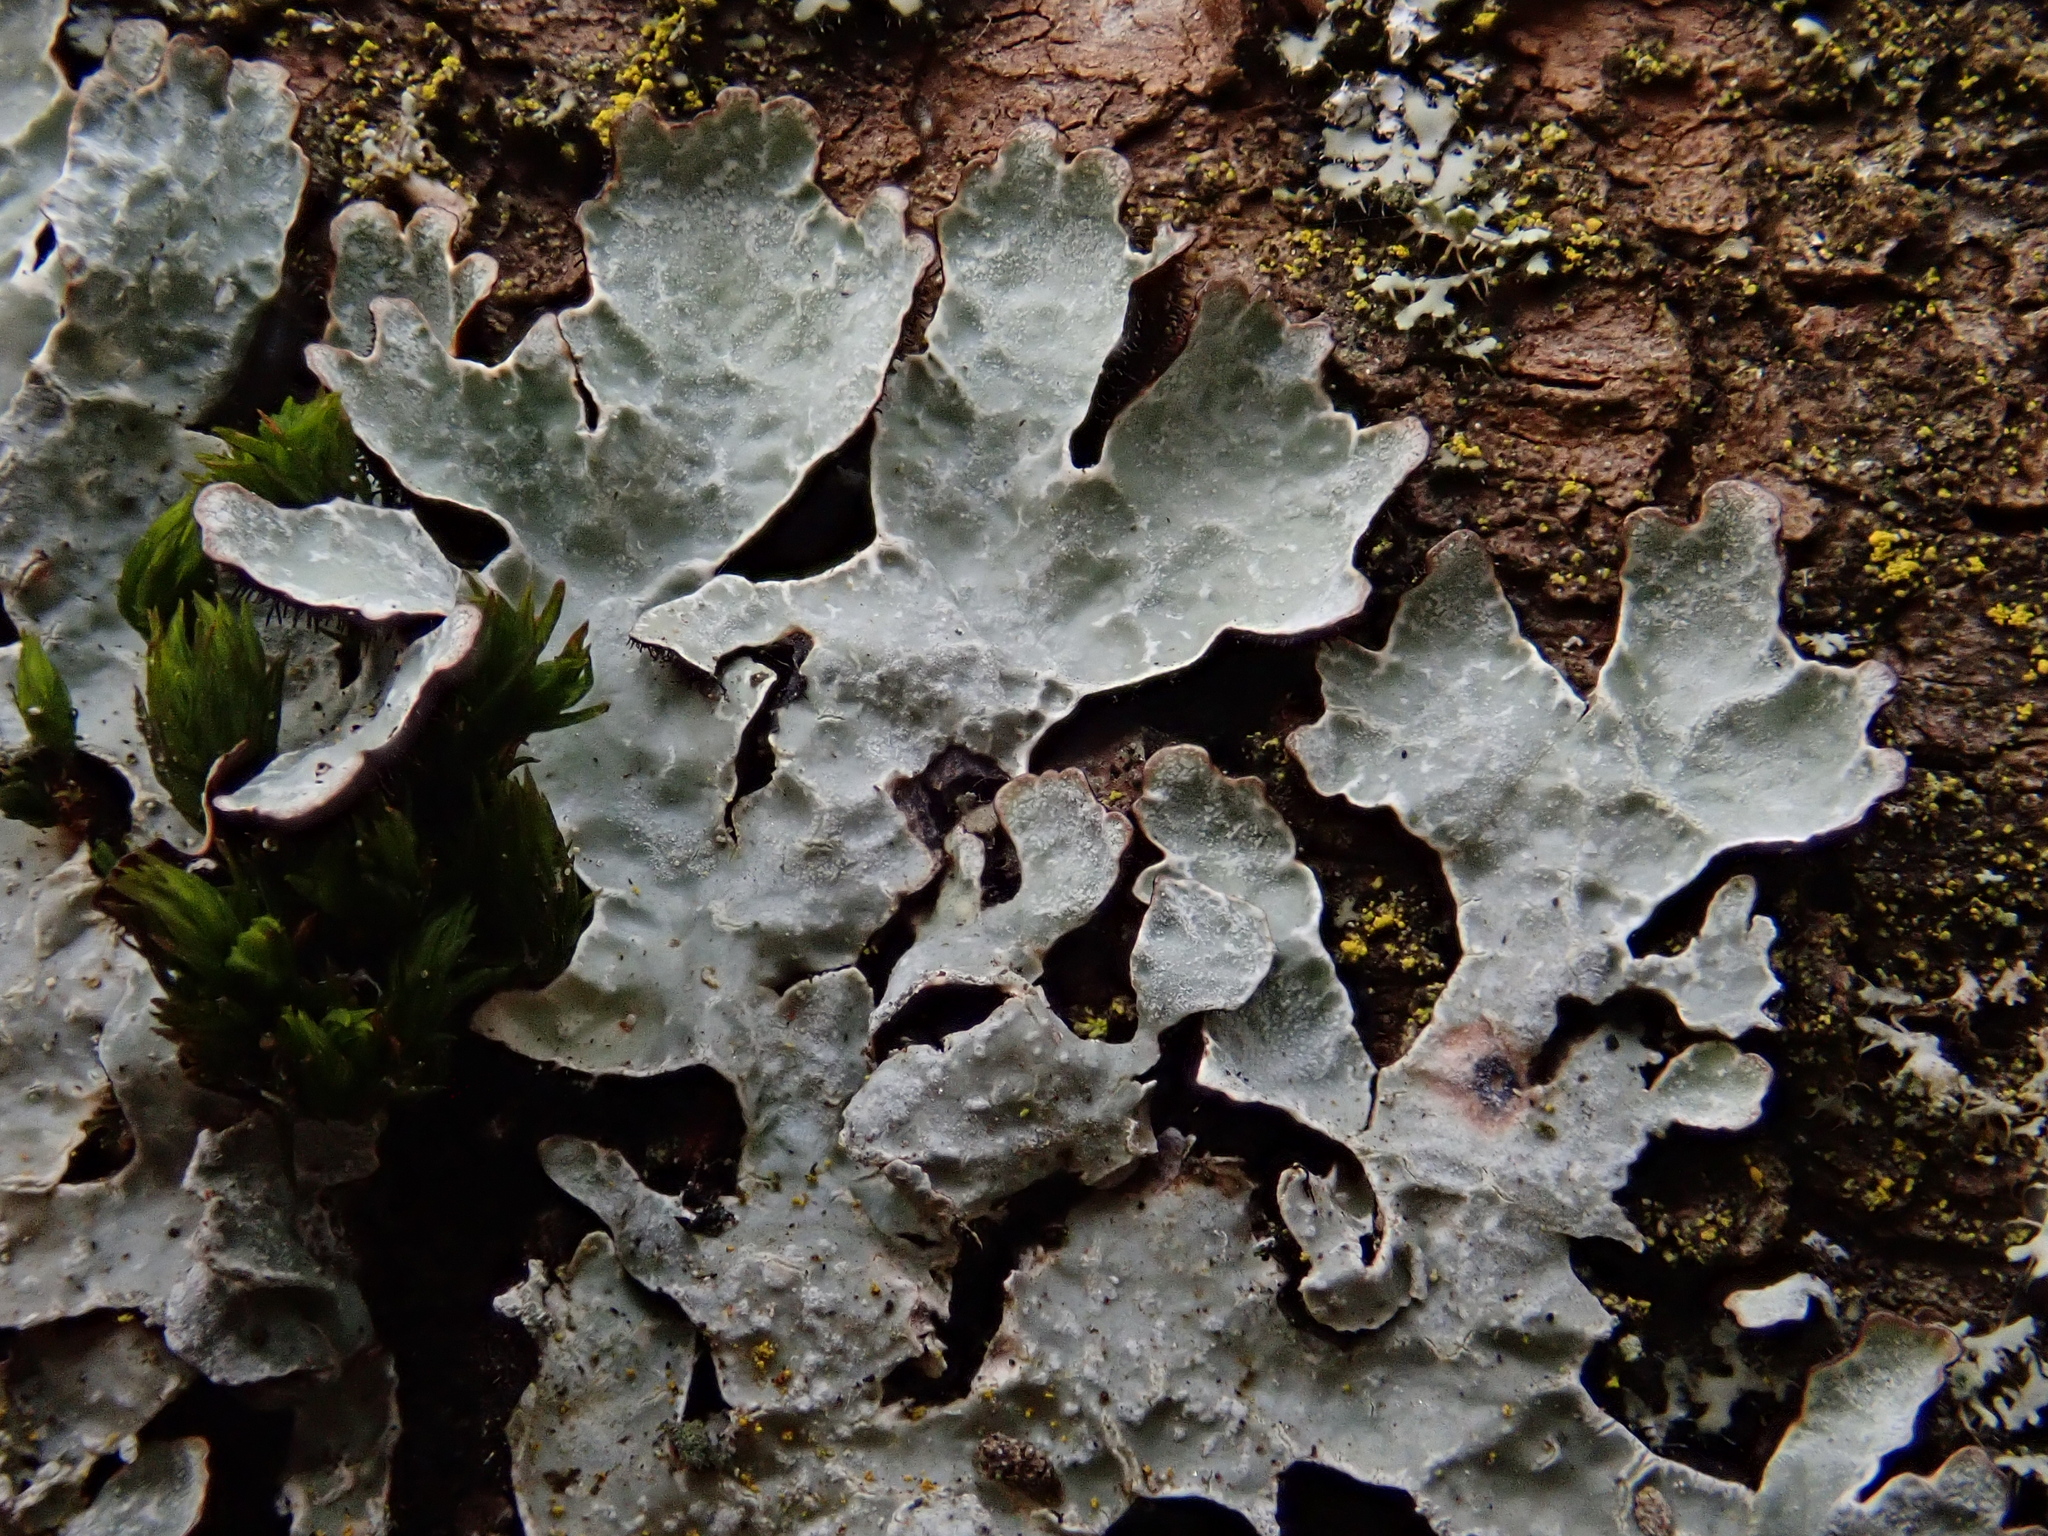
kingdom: Fungi
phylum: Ascomycota
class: Lecanoromycetes
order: Lecanorales
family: Parmeliaceae
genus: Parmelia
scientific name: Parmelia sulcata
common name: Netted shield lichen
